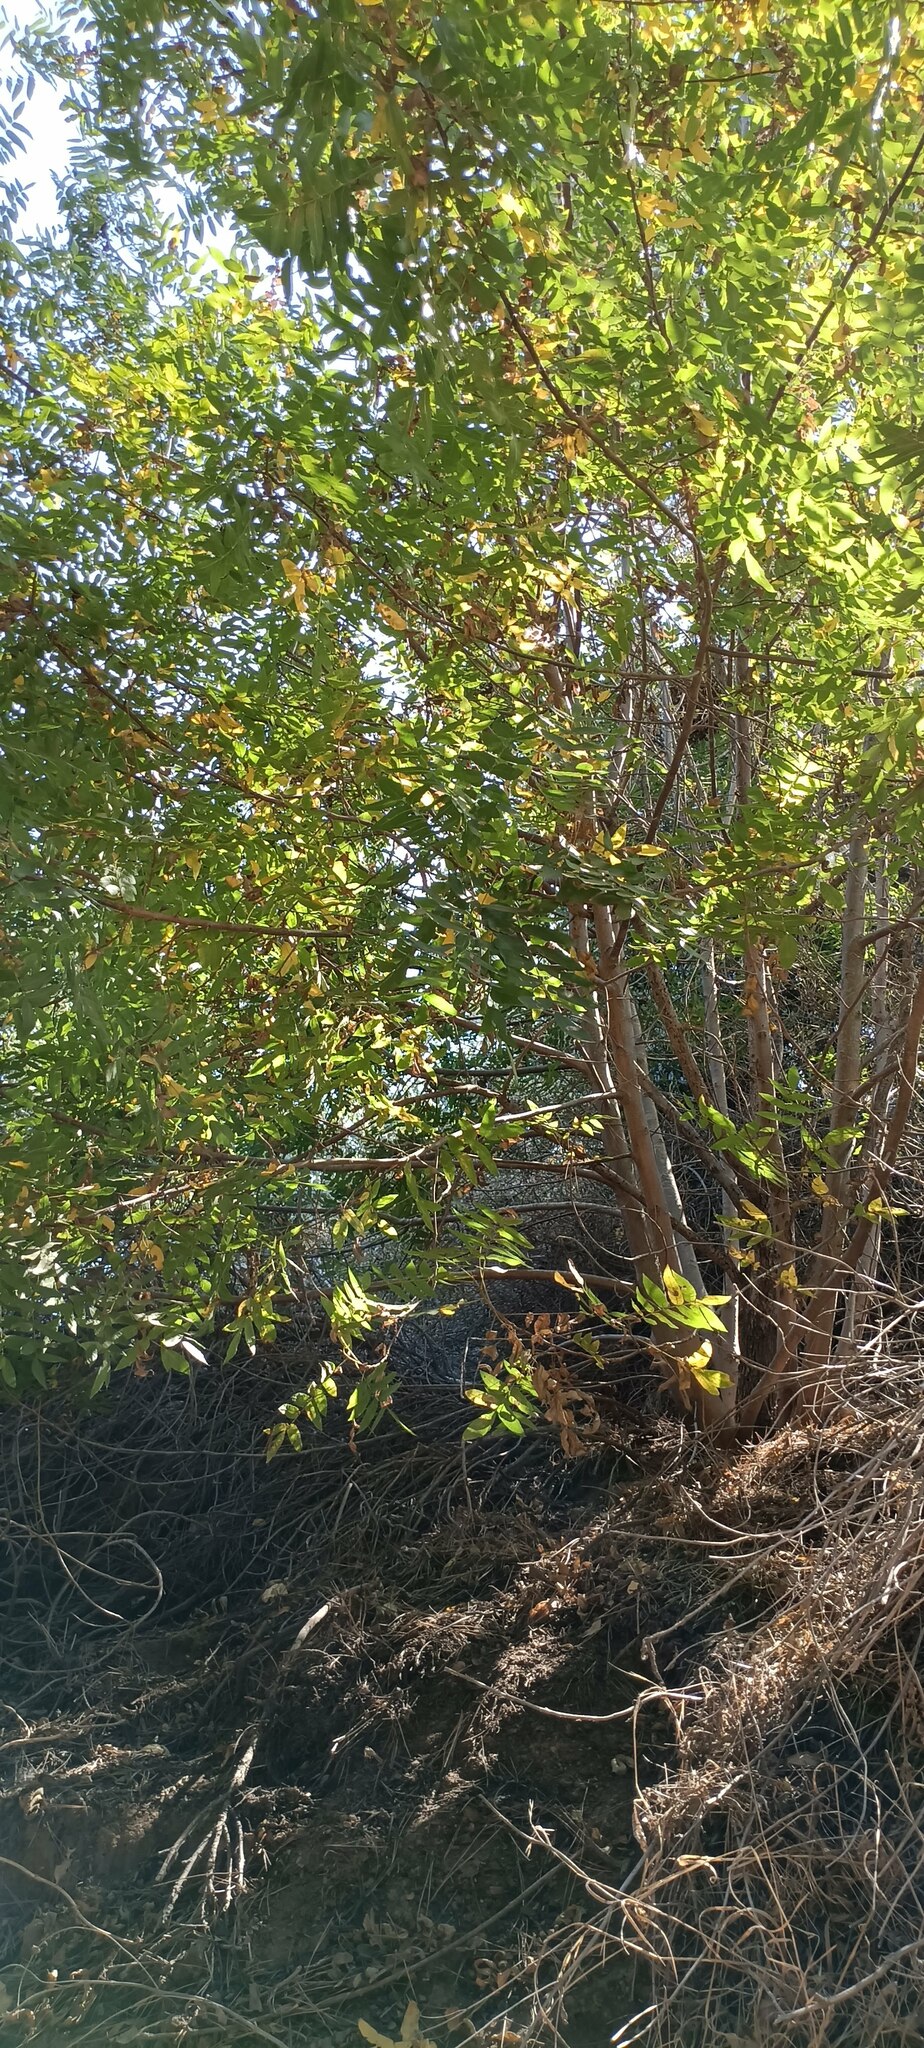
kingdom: Plantae
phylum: Tracheophyta
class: Magnoliopsida
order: Fagales
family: Juglandaceae
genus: Juglans
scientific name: Juglans californica
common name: Southern california black walnut
